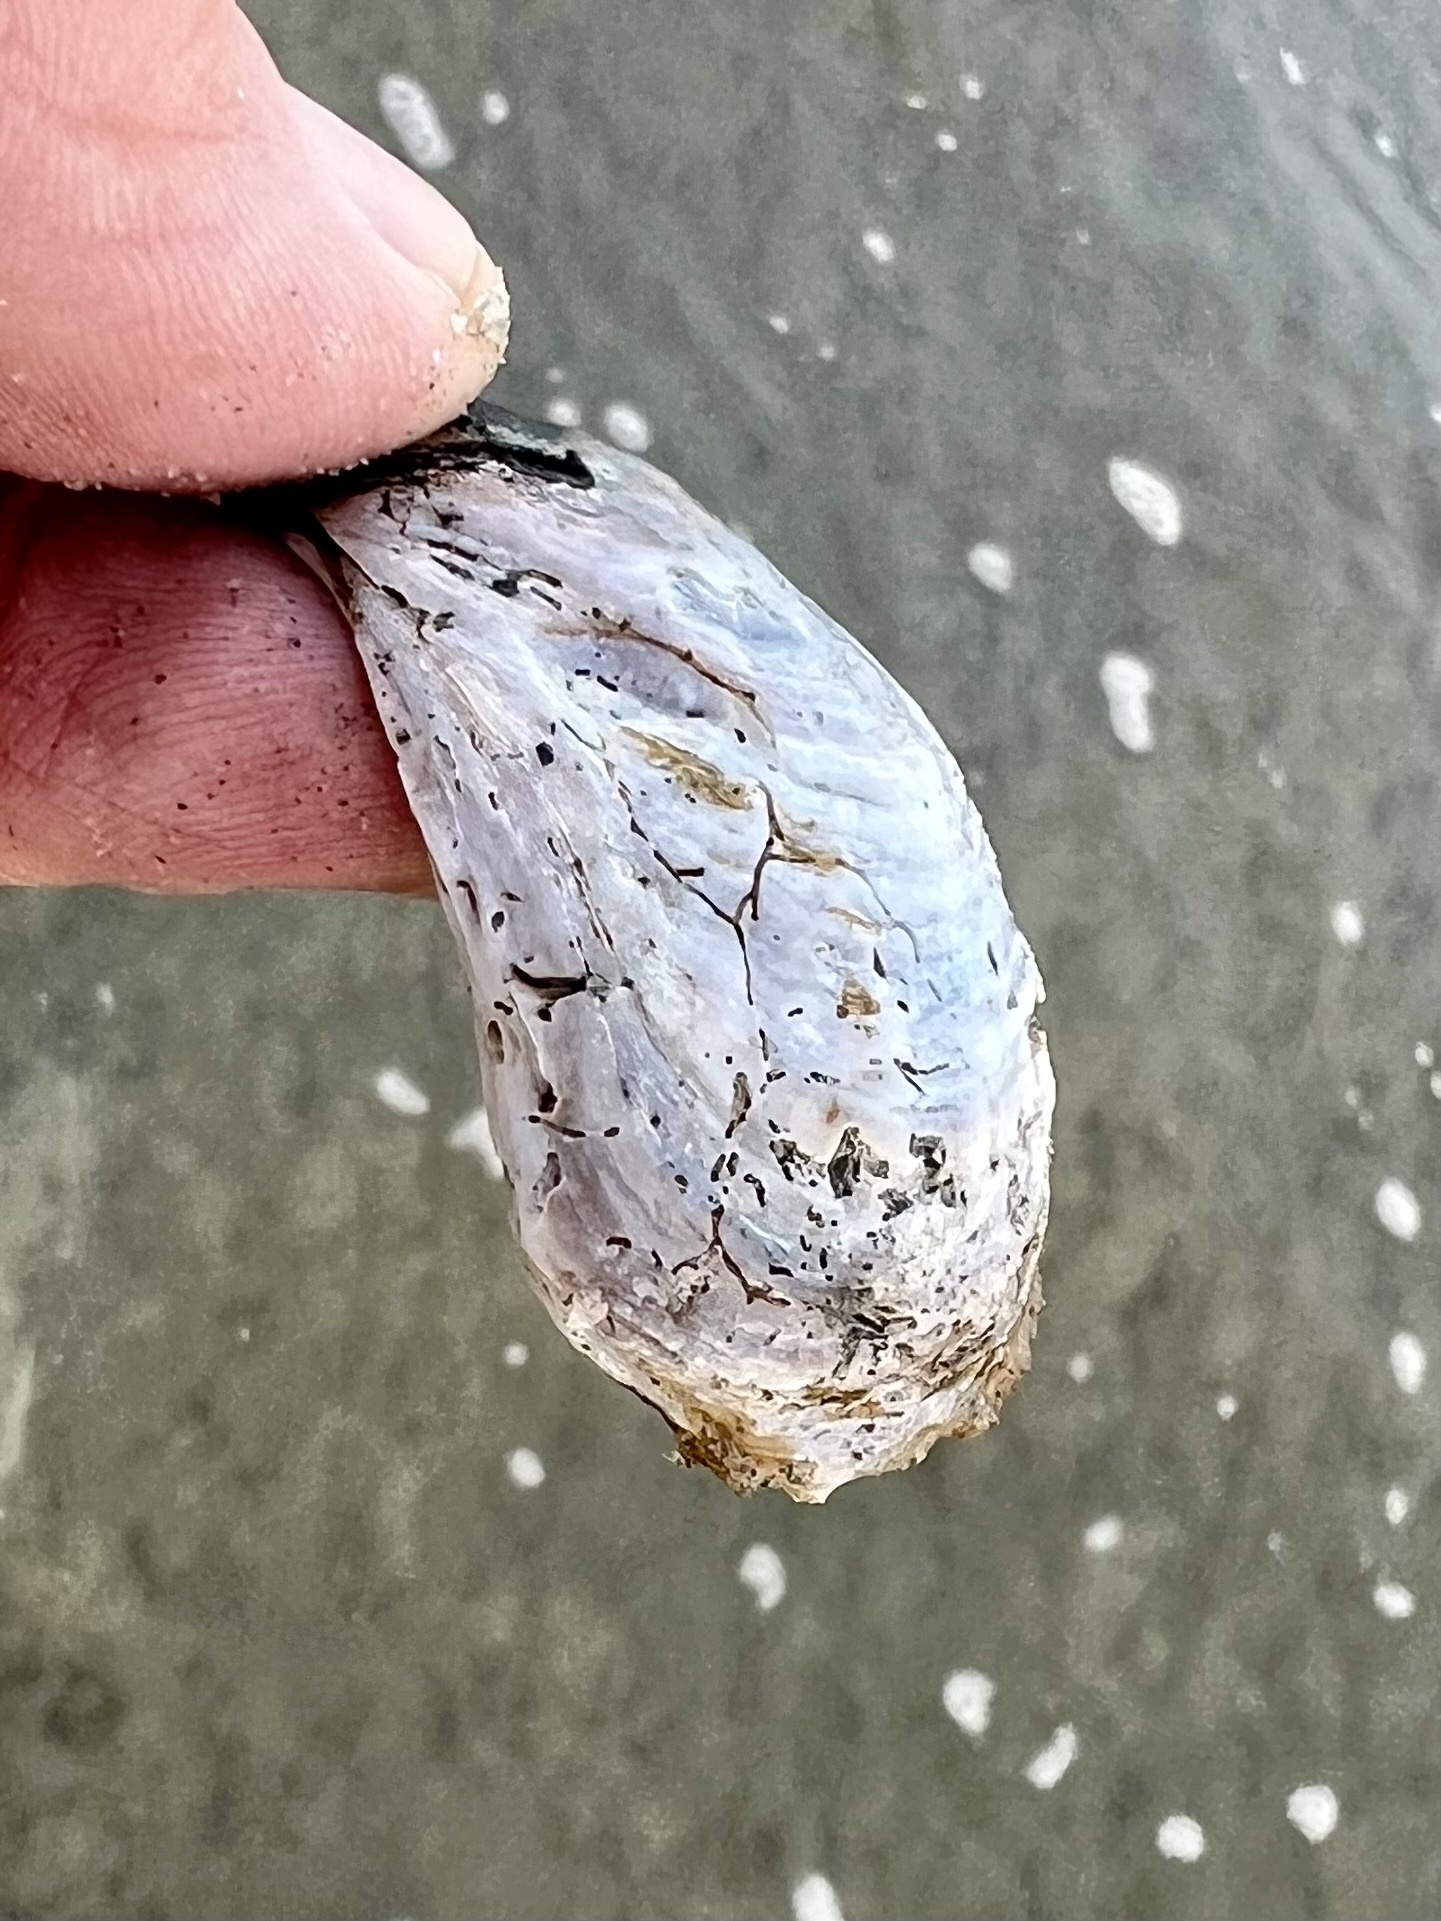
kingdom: Animalia
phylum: Mollusca
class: Gastropoda
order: Littorinimorpha
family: Calyptraeidae
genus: Crepidula
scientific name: Crepidula onyx
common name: Onyx slippersnail
